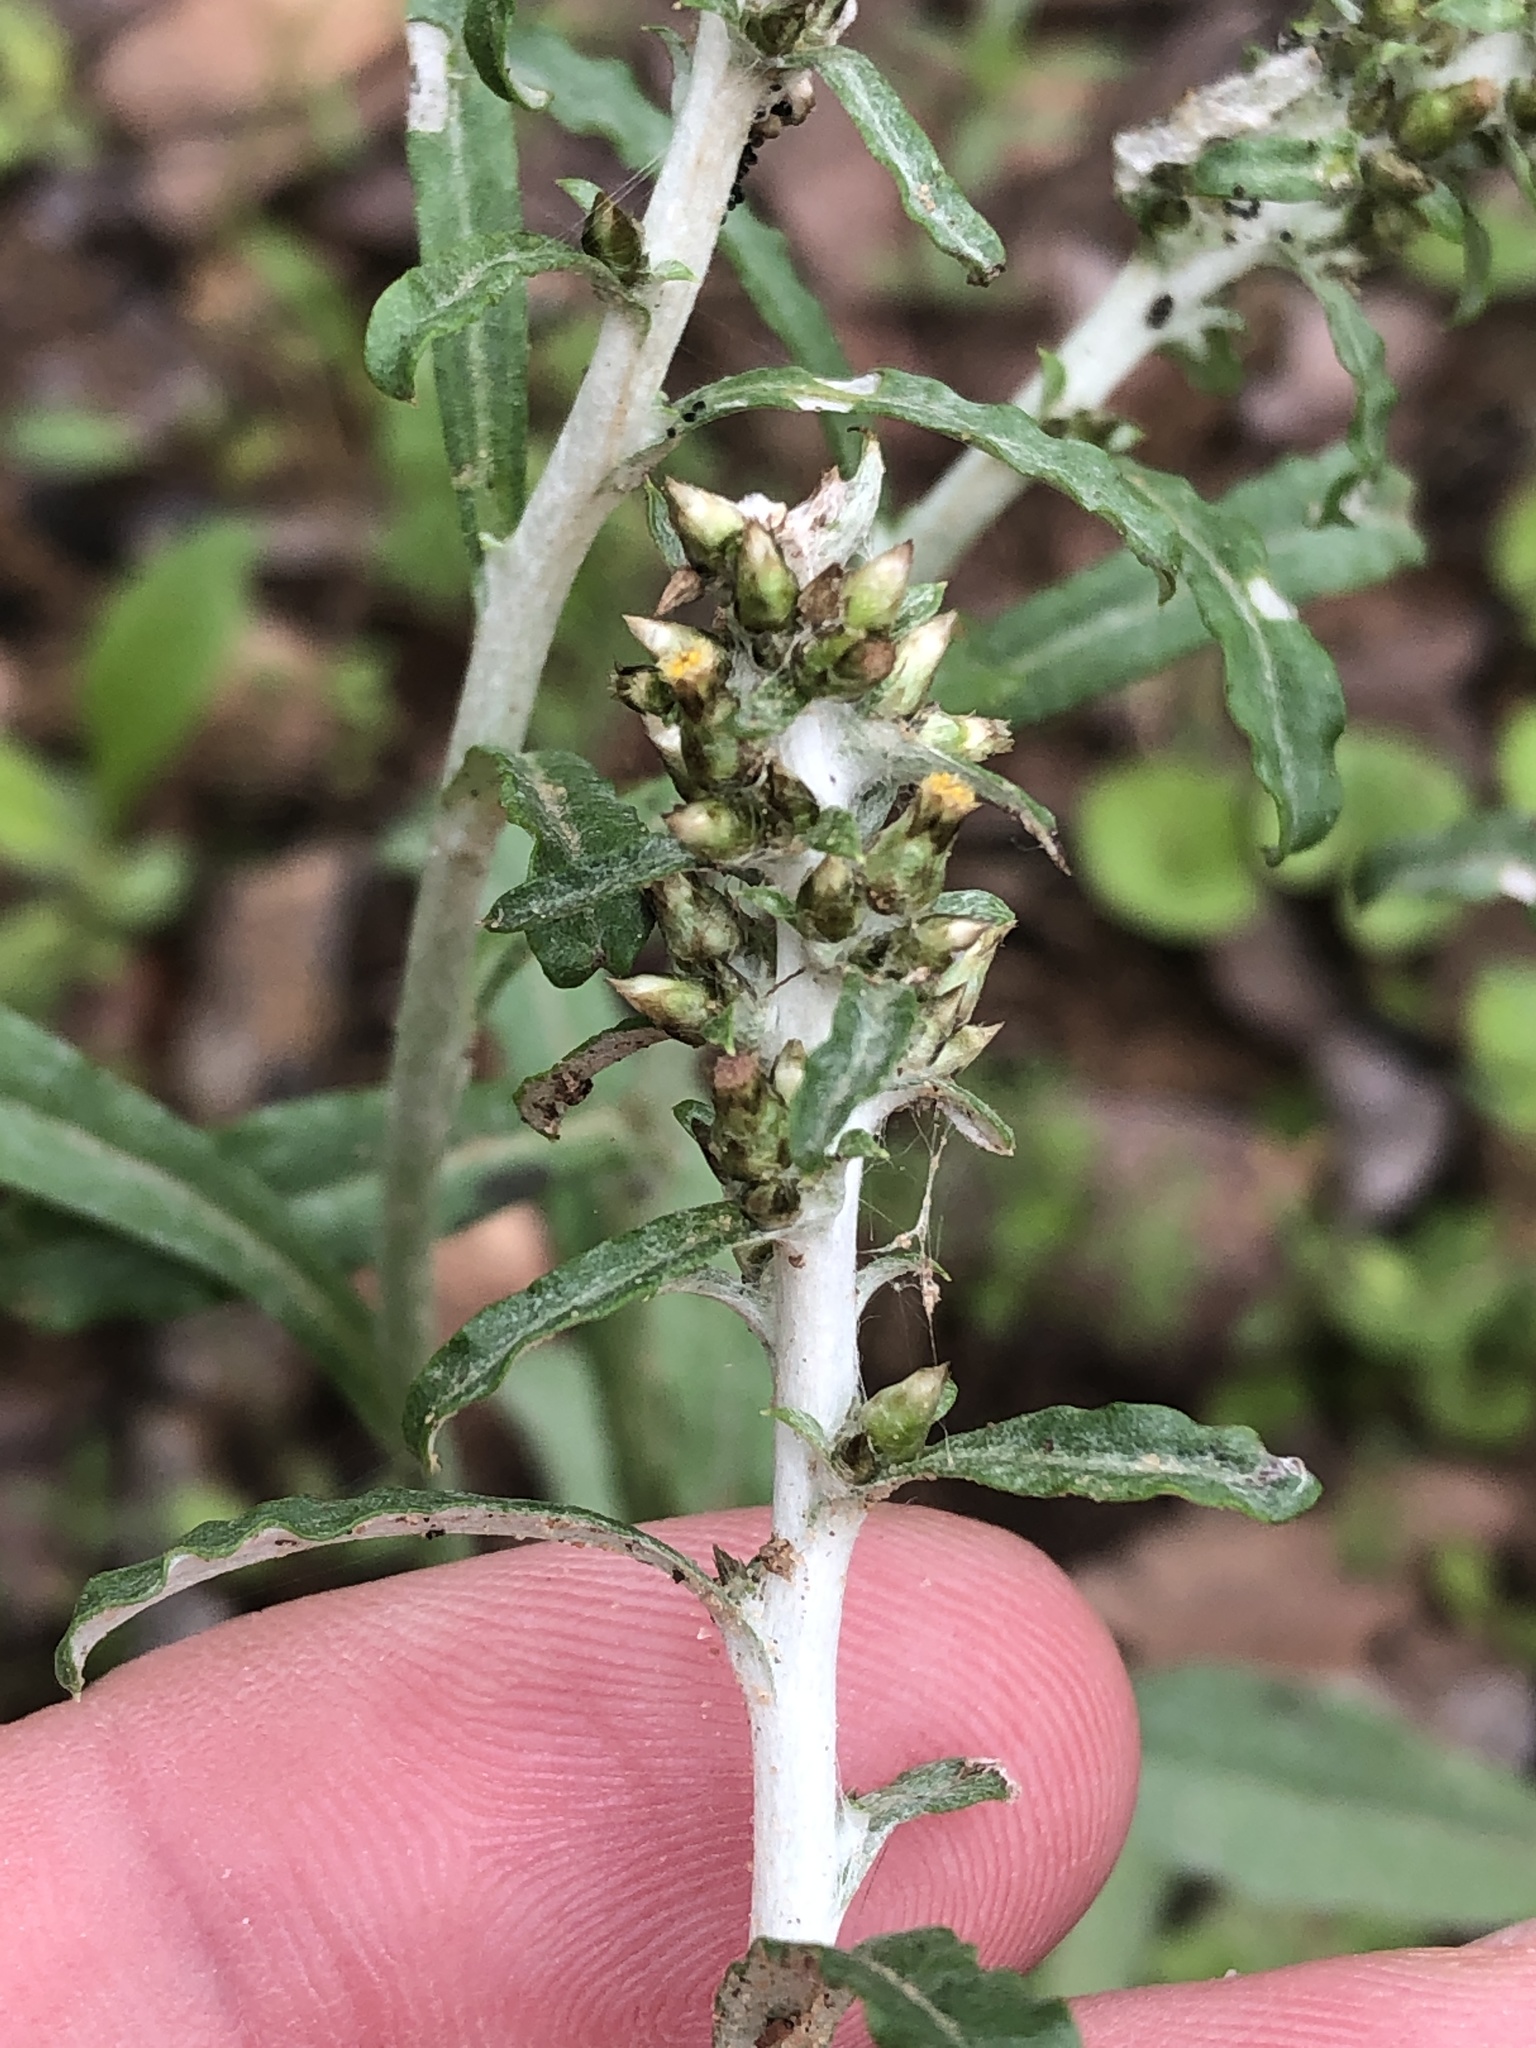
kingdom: Plantae
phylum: Tracheophyta
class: Magnoliopsida
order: Asterales
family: Asteraceae
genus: Gamochaeta
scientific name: Gamochaeta pensylvanica
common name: Pennsylvania everlasting
